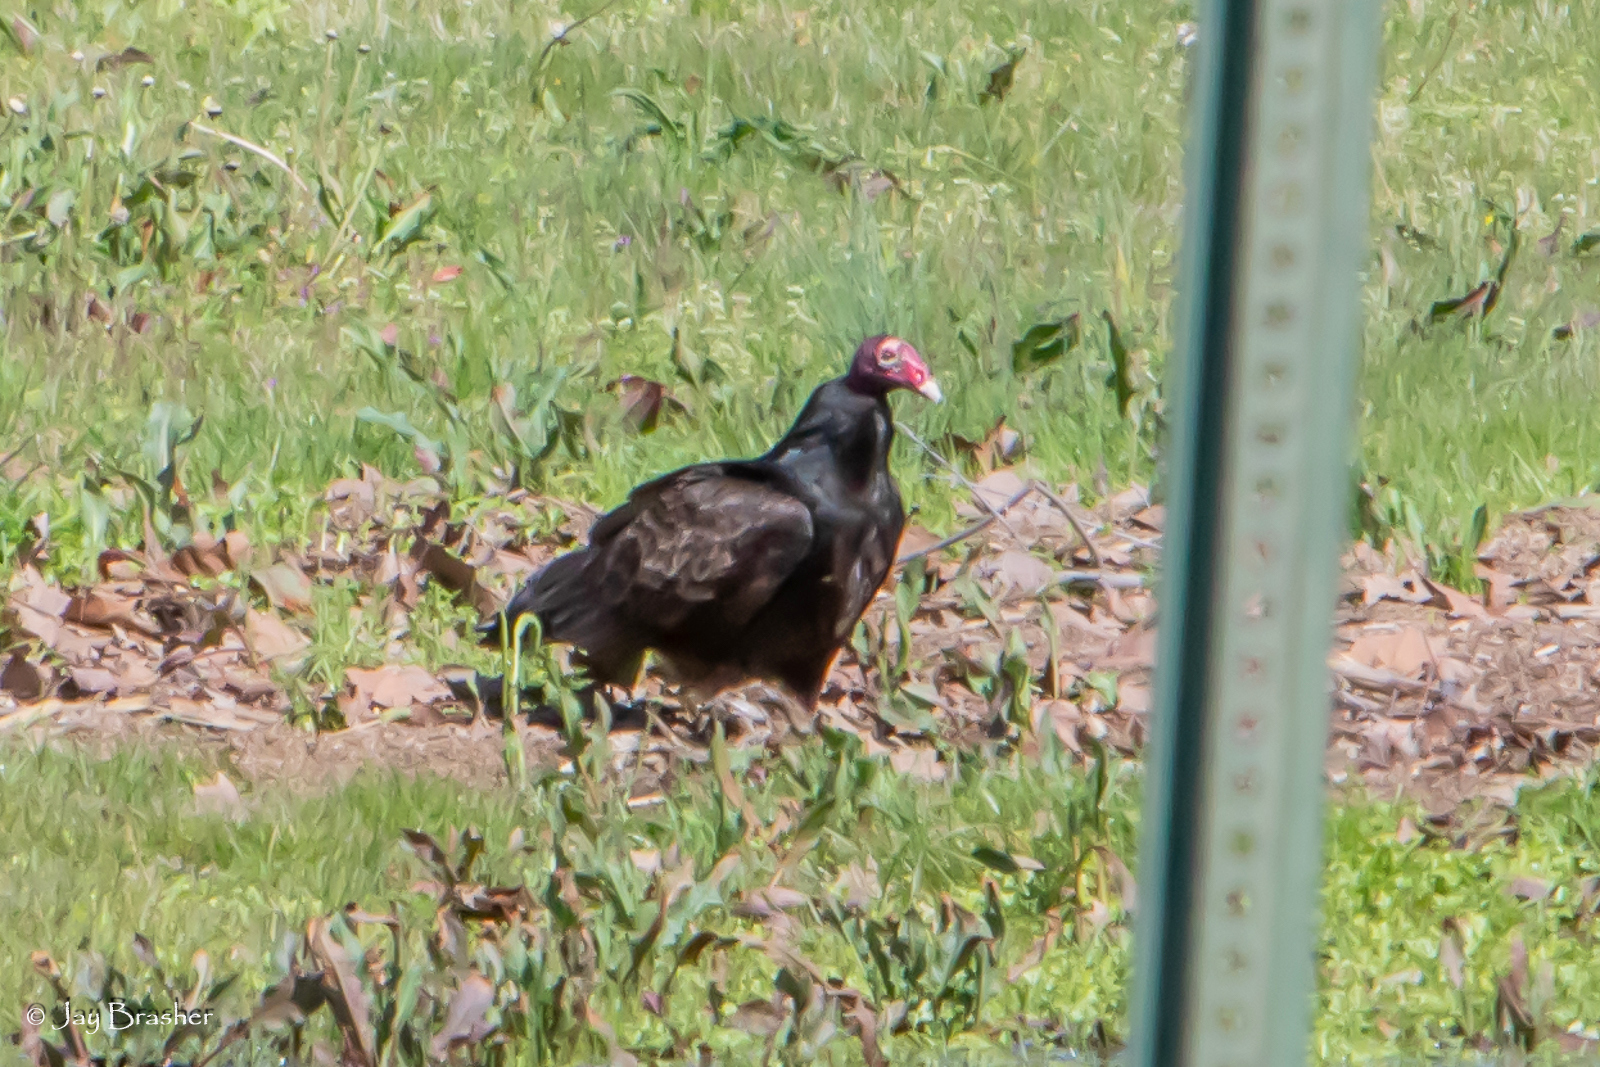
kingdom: Animalia
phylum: Chordata
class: Aves
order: Accipitriformes
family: Cathartidae
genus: Cathartes
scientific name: Cathartes aura
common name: Turkey vulture
